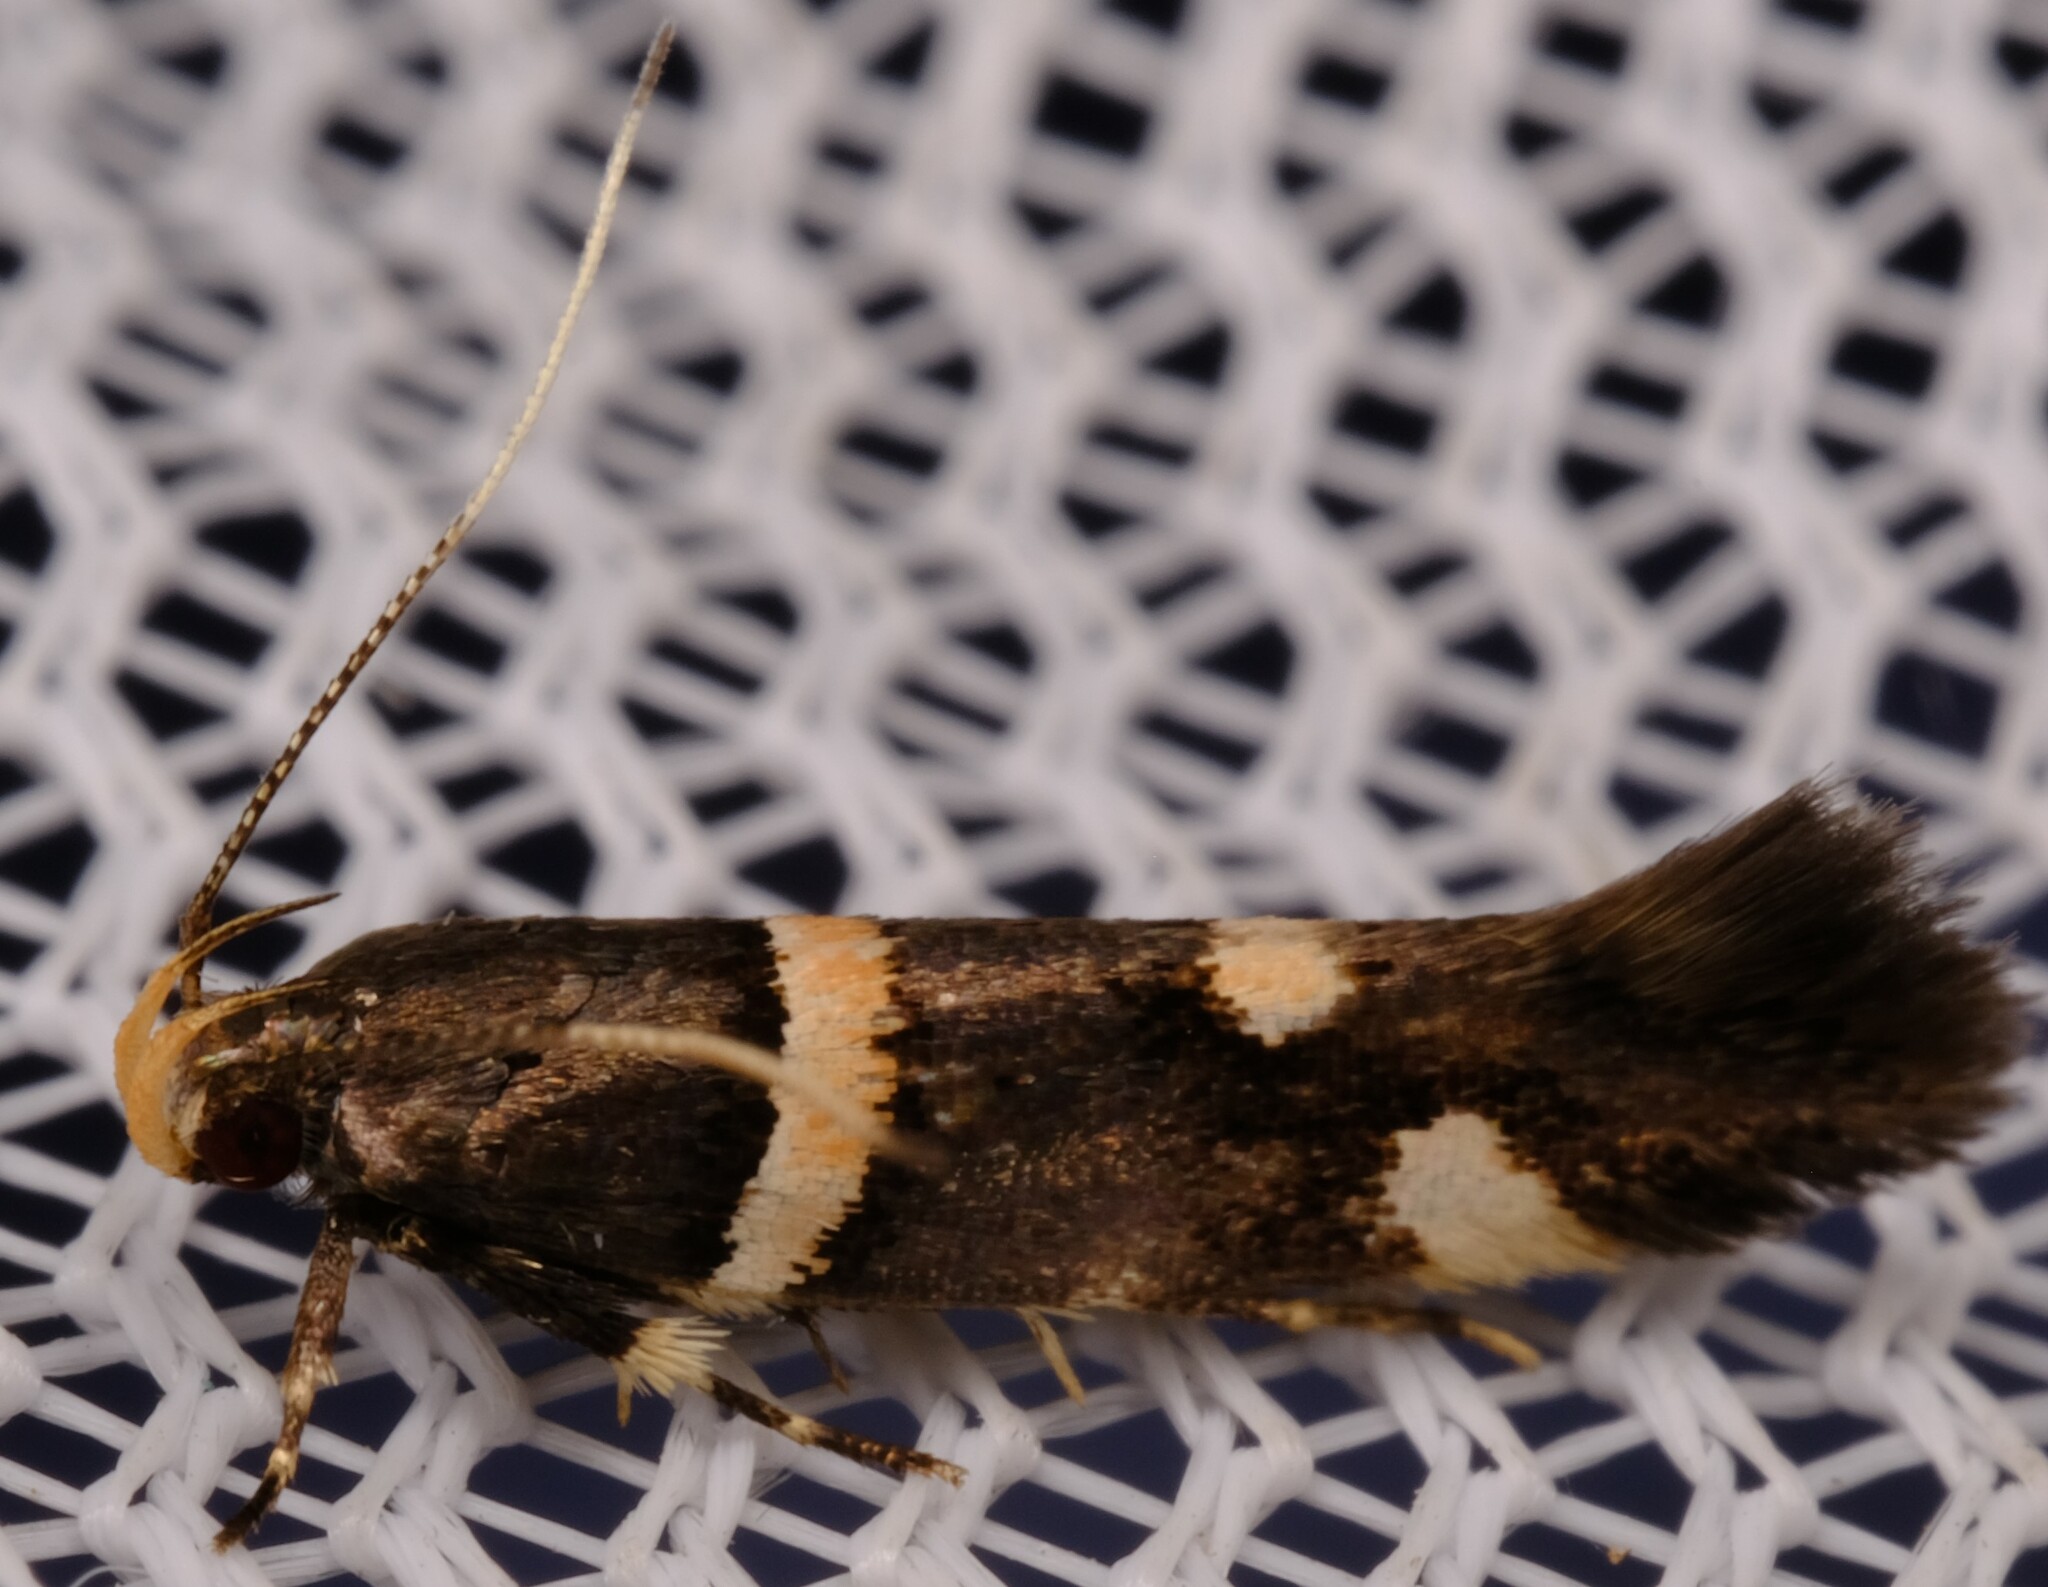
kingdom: Animalia
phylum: Arthropoda
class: Insecta
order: Lepidoptera
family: Cosmopterigidae
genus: Macrobathra
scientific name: Macrobathra alternatella
